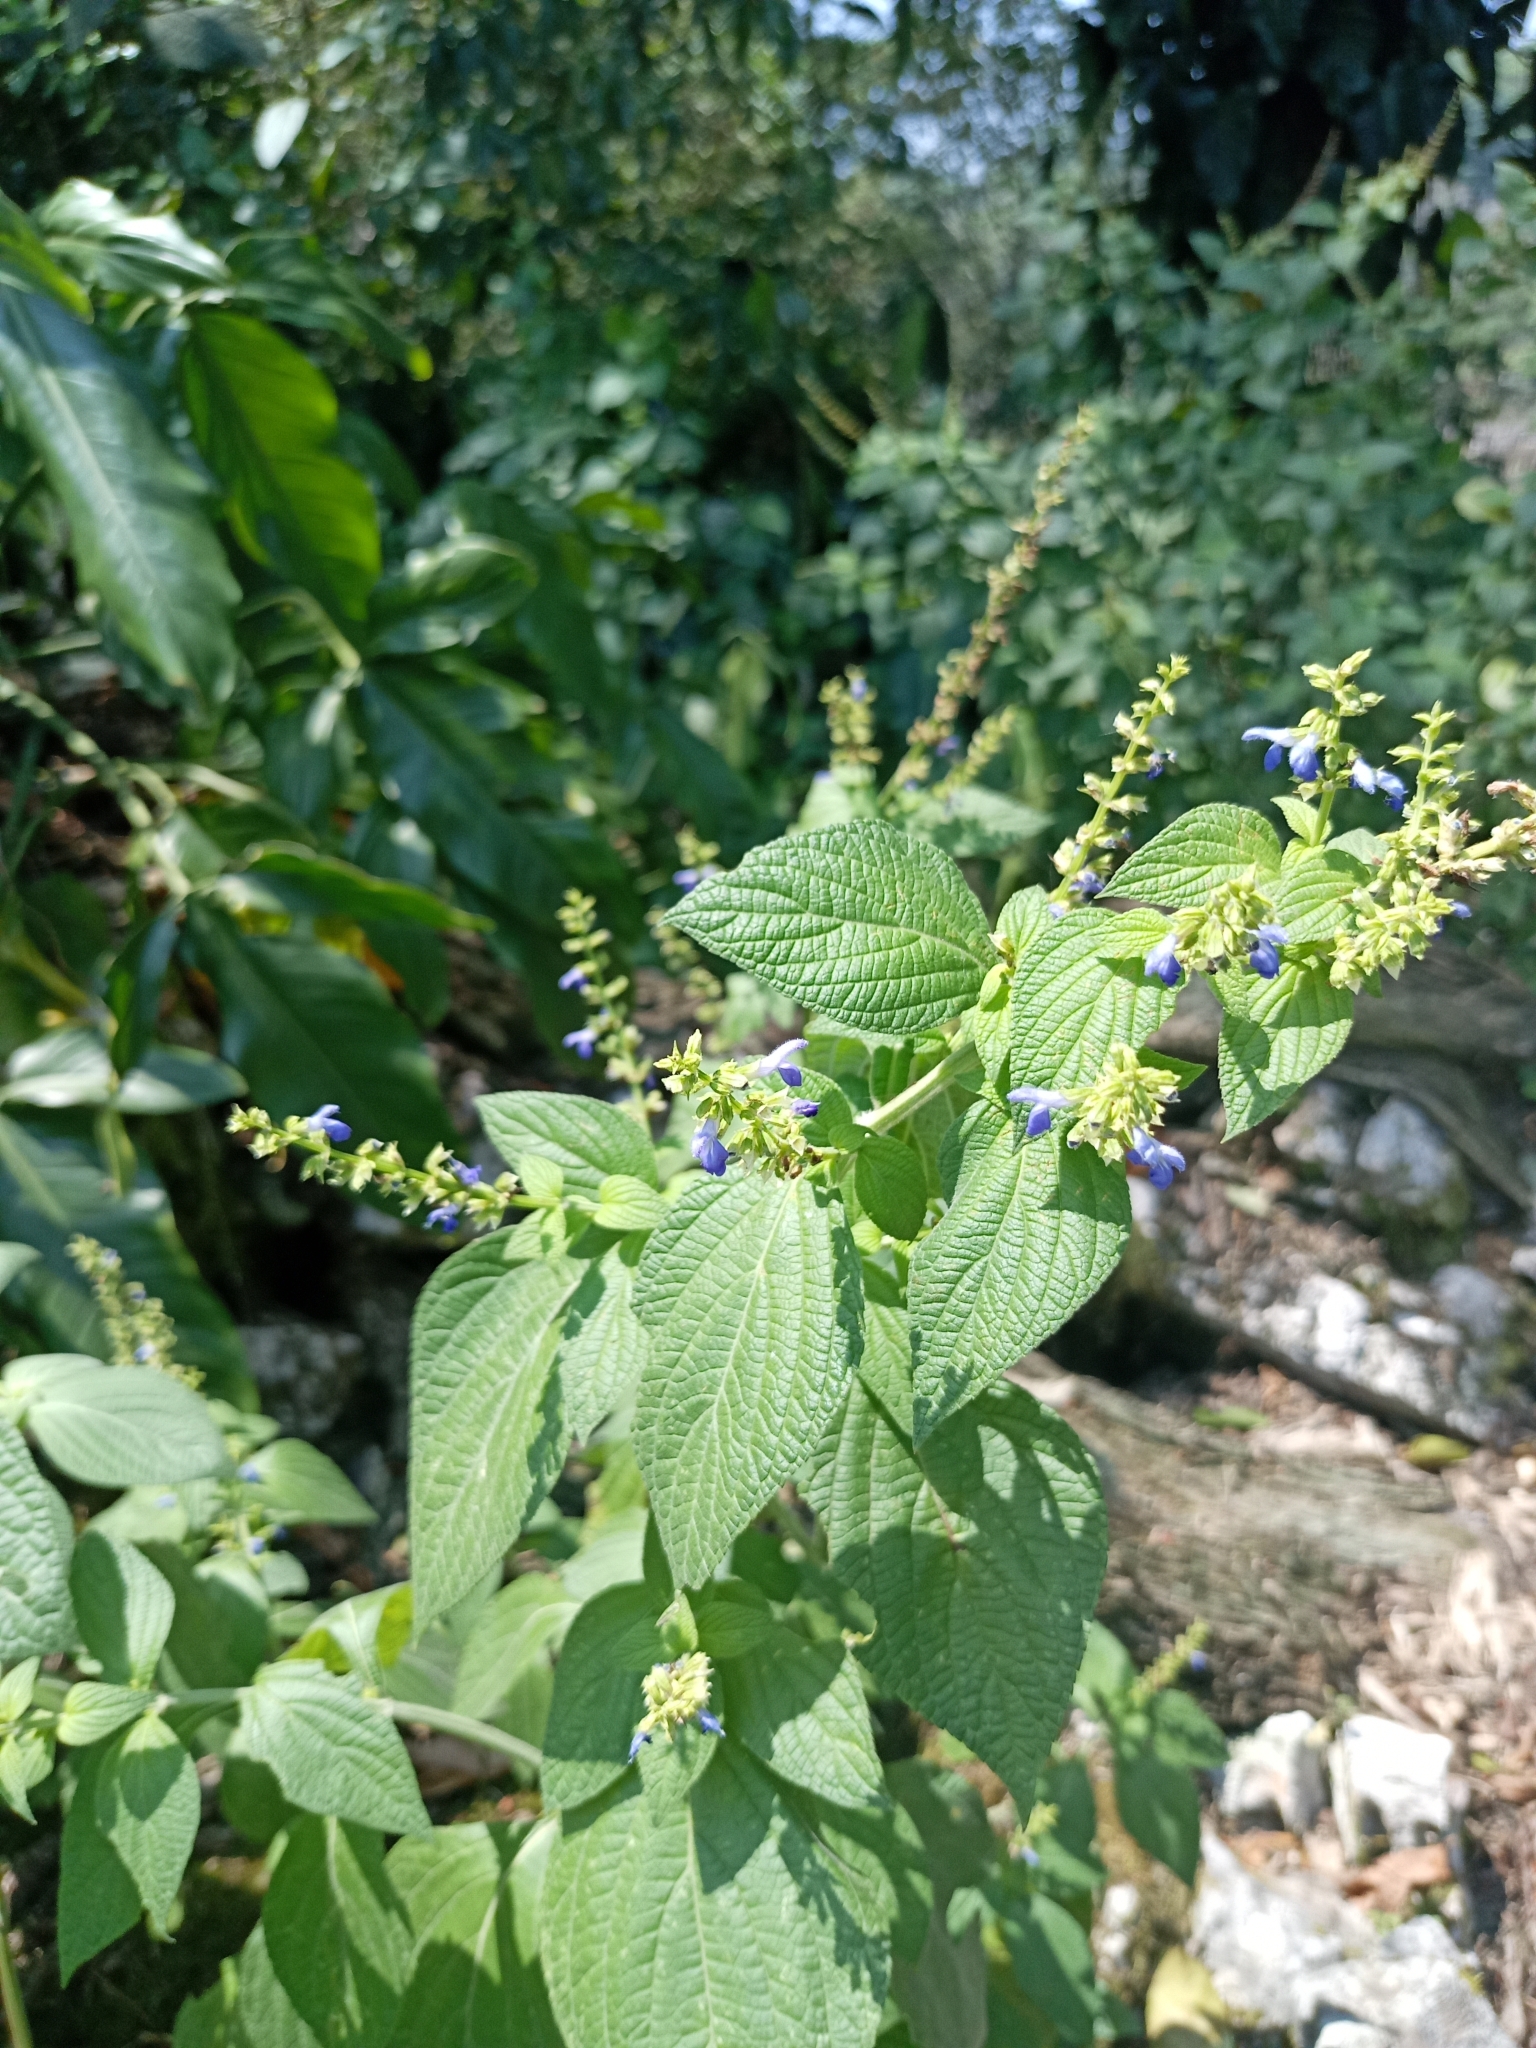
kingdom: Plantae
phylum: Tracheophyta
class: Magnoliopsida
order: Lamiales
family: Lamiaceae
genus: Salvia
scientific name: Salvia xalapensis
